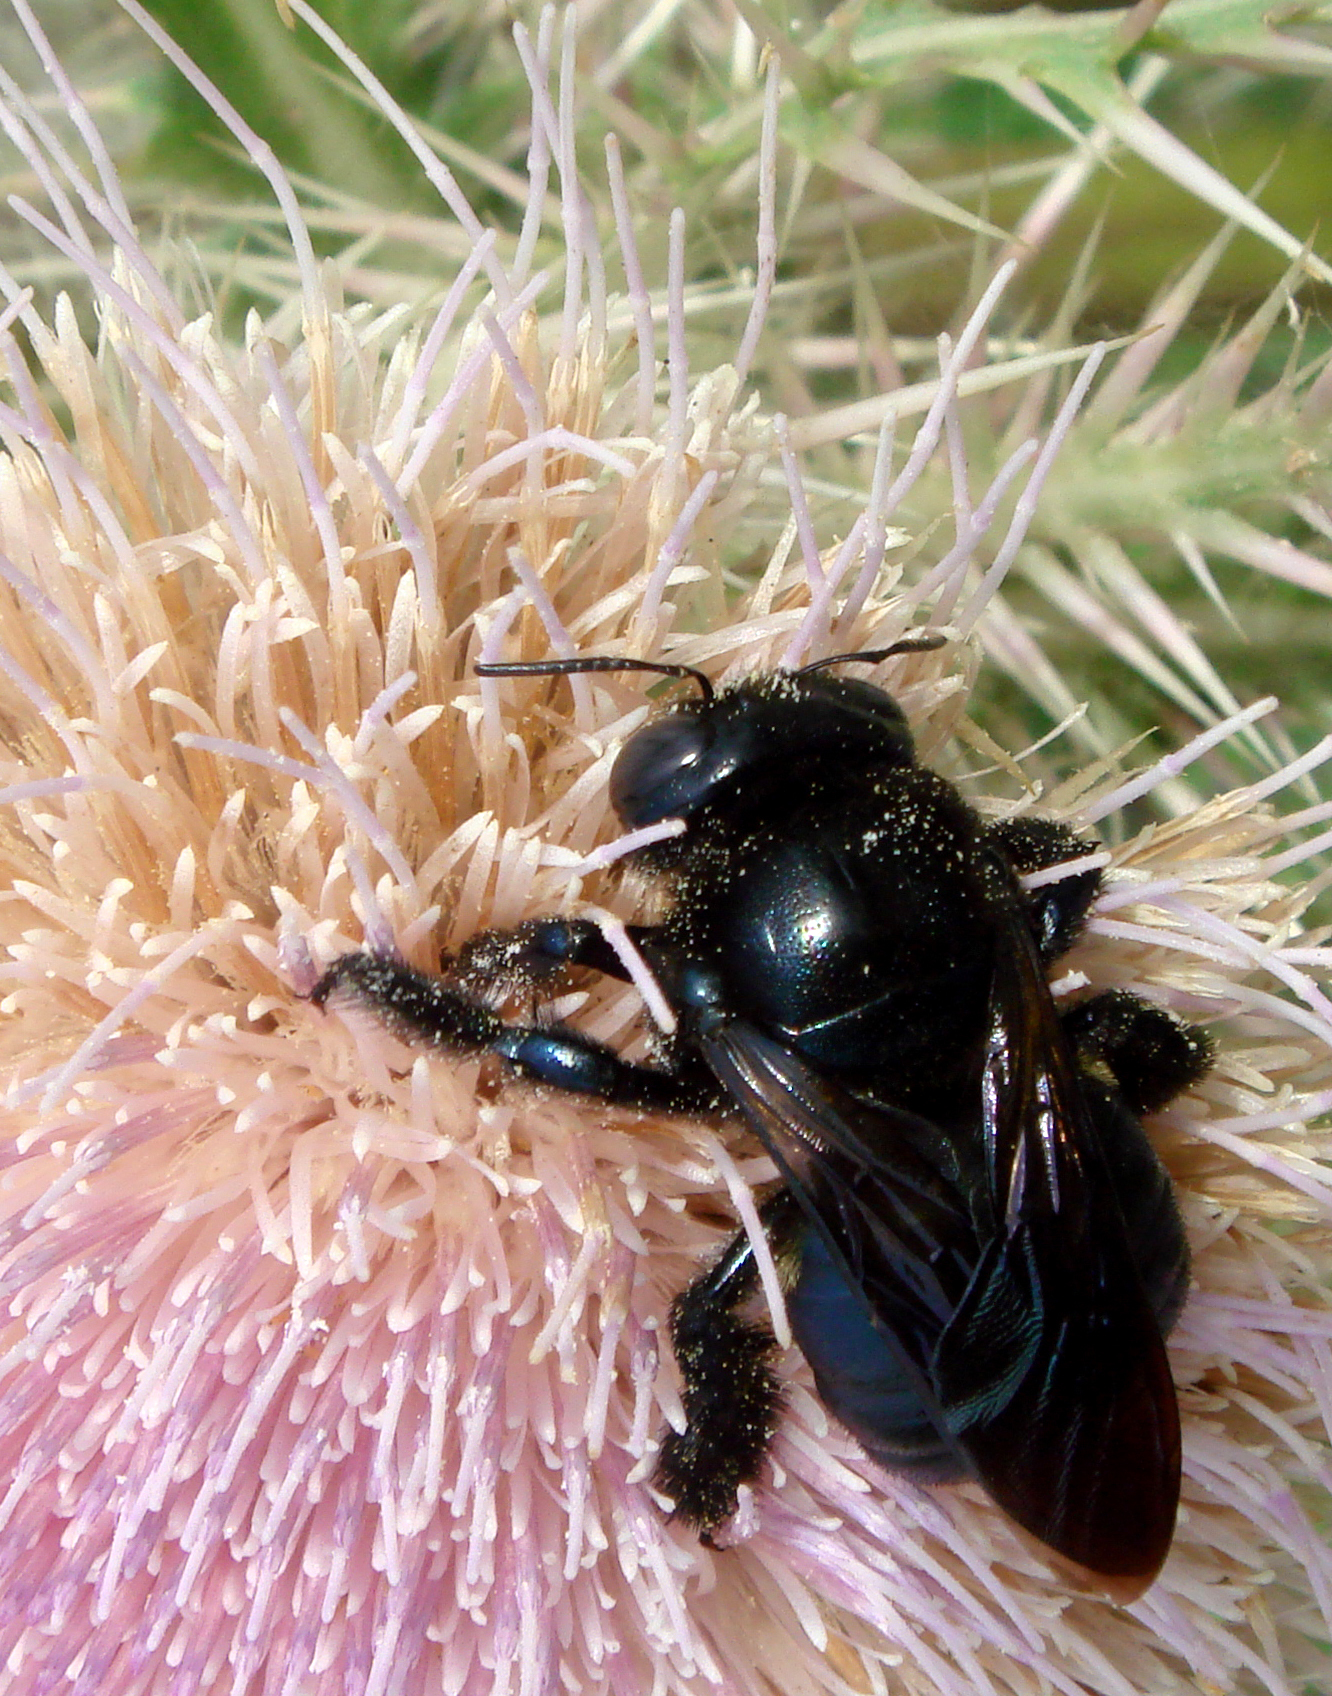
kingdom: Animalia
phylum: Arthropoda
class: Insecta
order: Hymenoptera
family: Apidae
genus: Xylocopa
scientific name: Xylocopa micans
